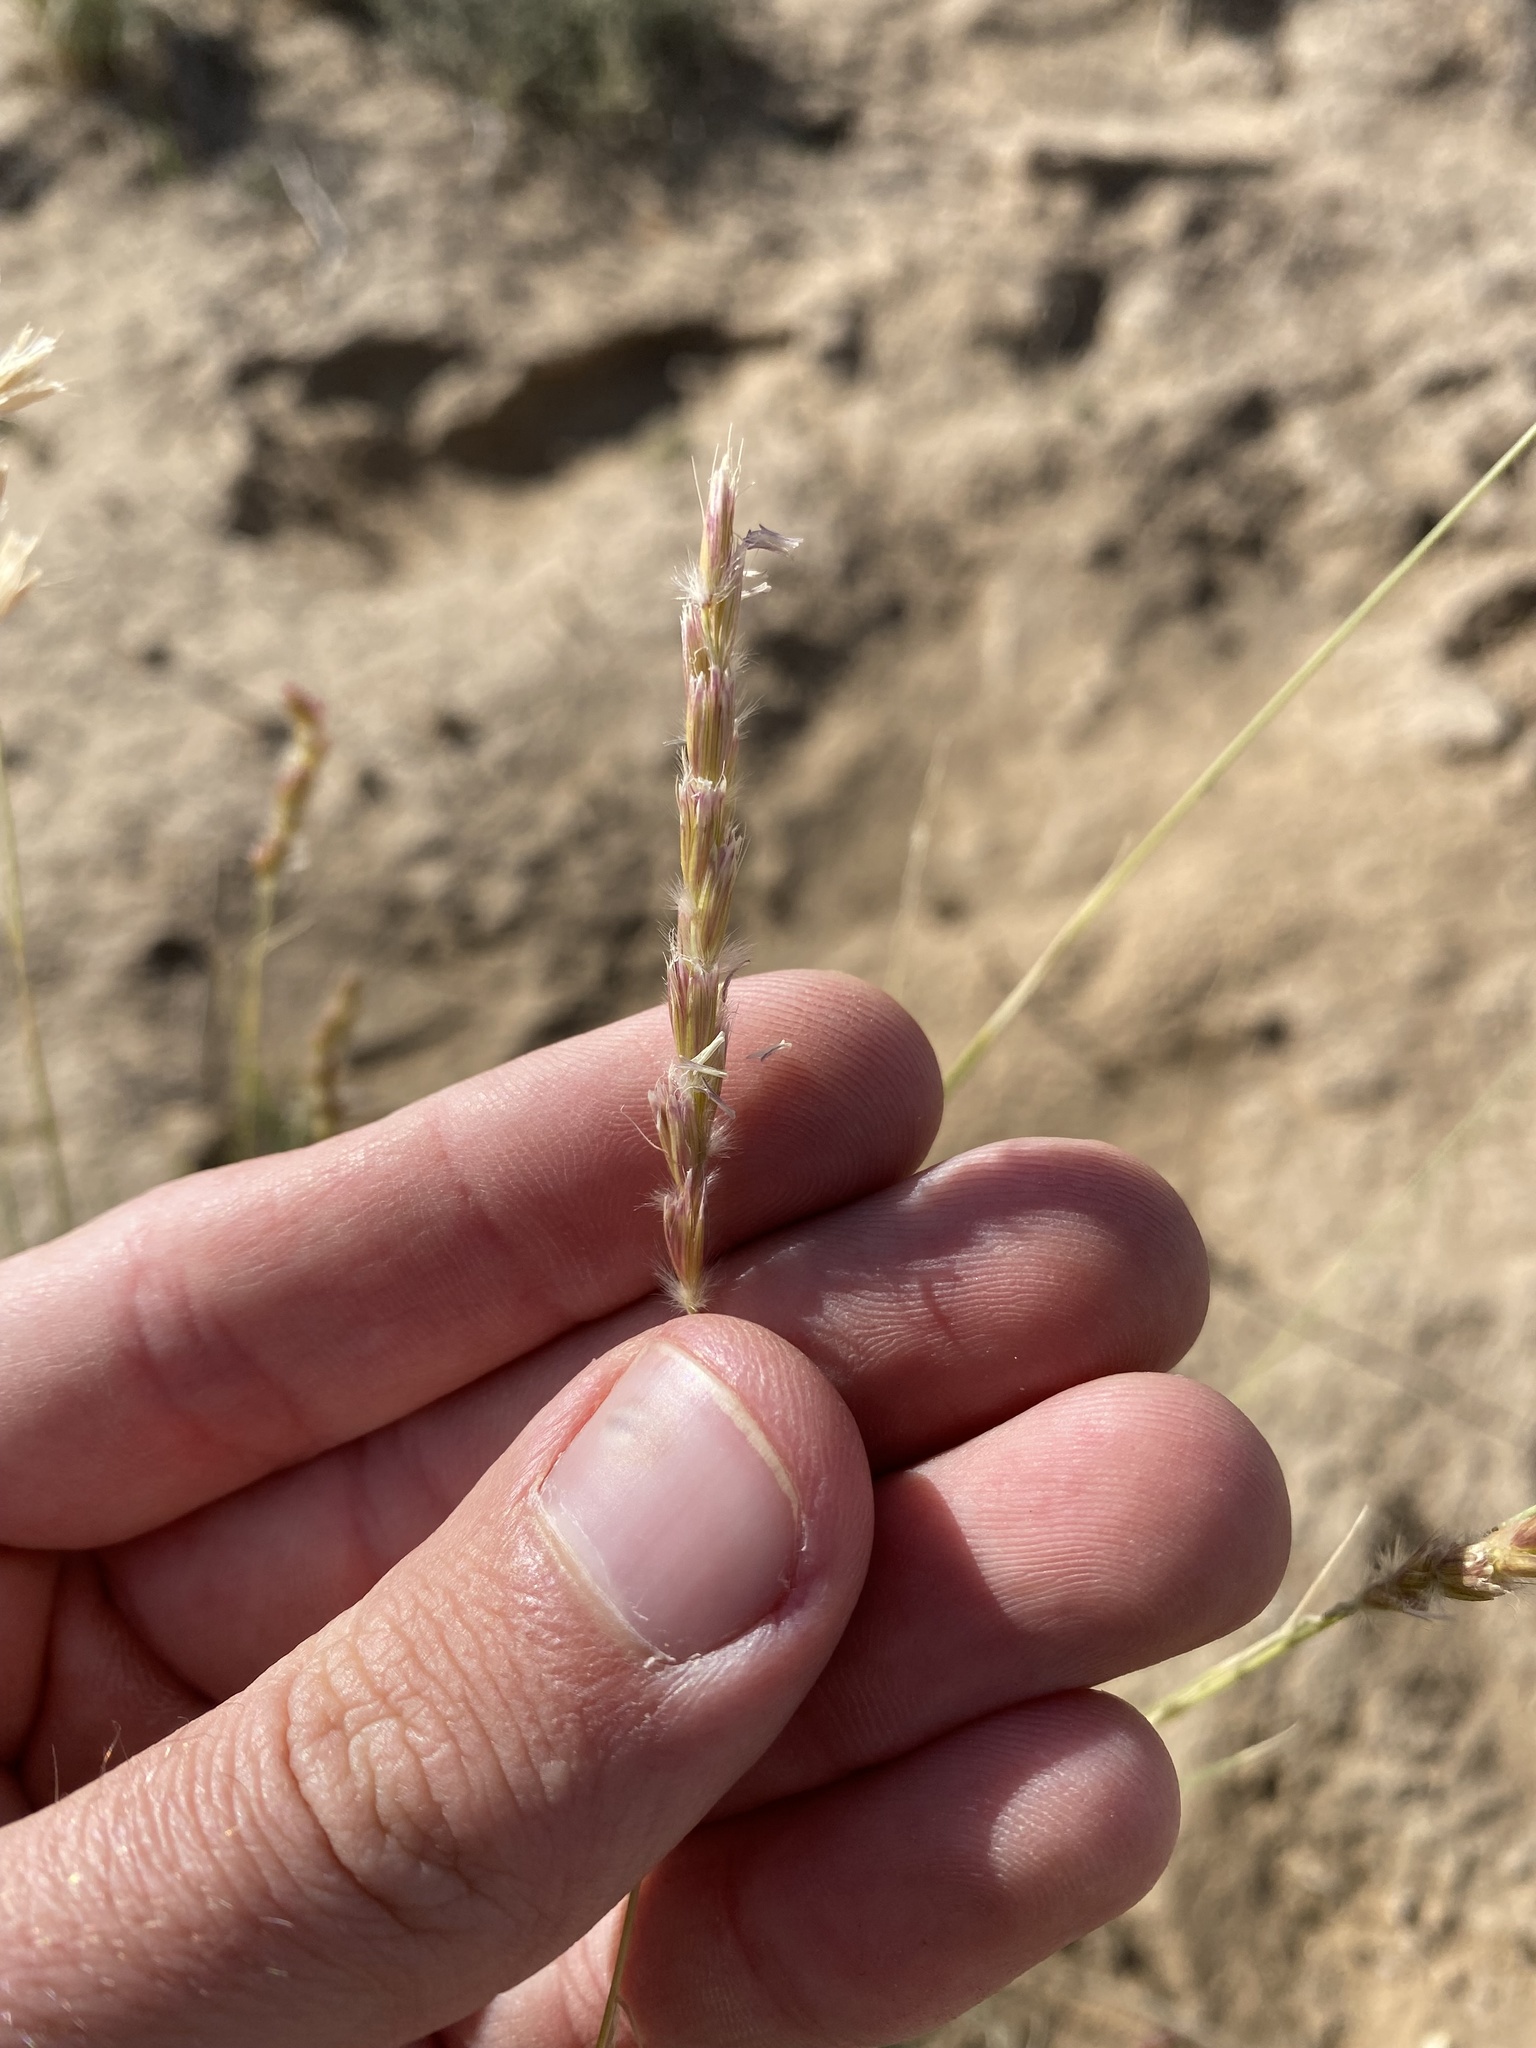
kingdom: Plantae
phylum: Tracheophyta
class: Liliopsida
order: Poales
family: Poaceae
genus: Hilaria
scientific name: Hilaria jamesii
